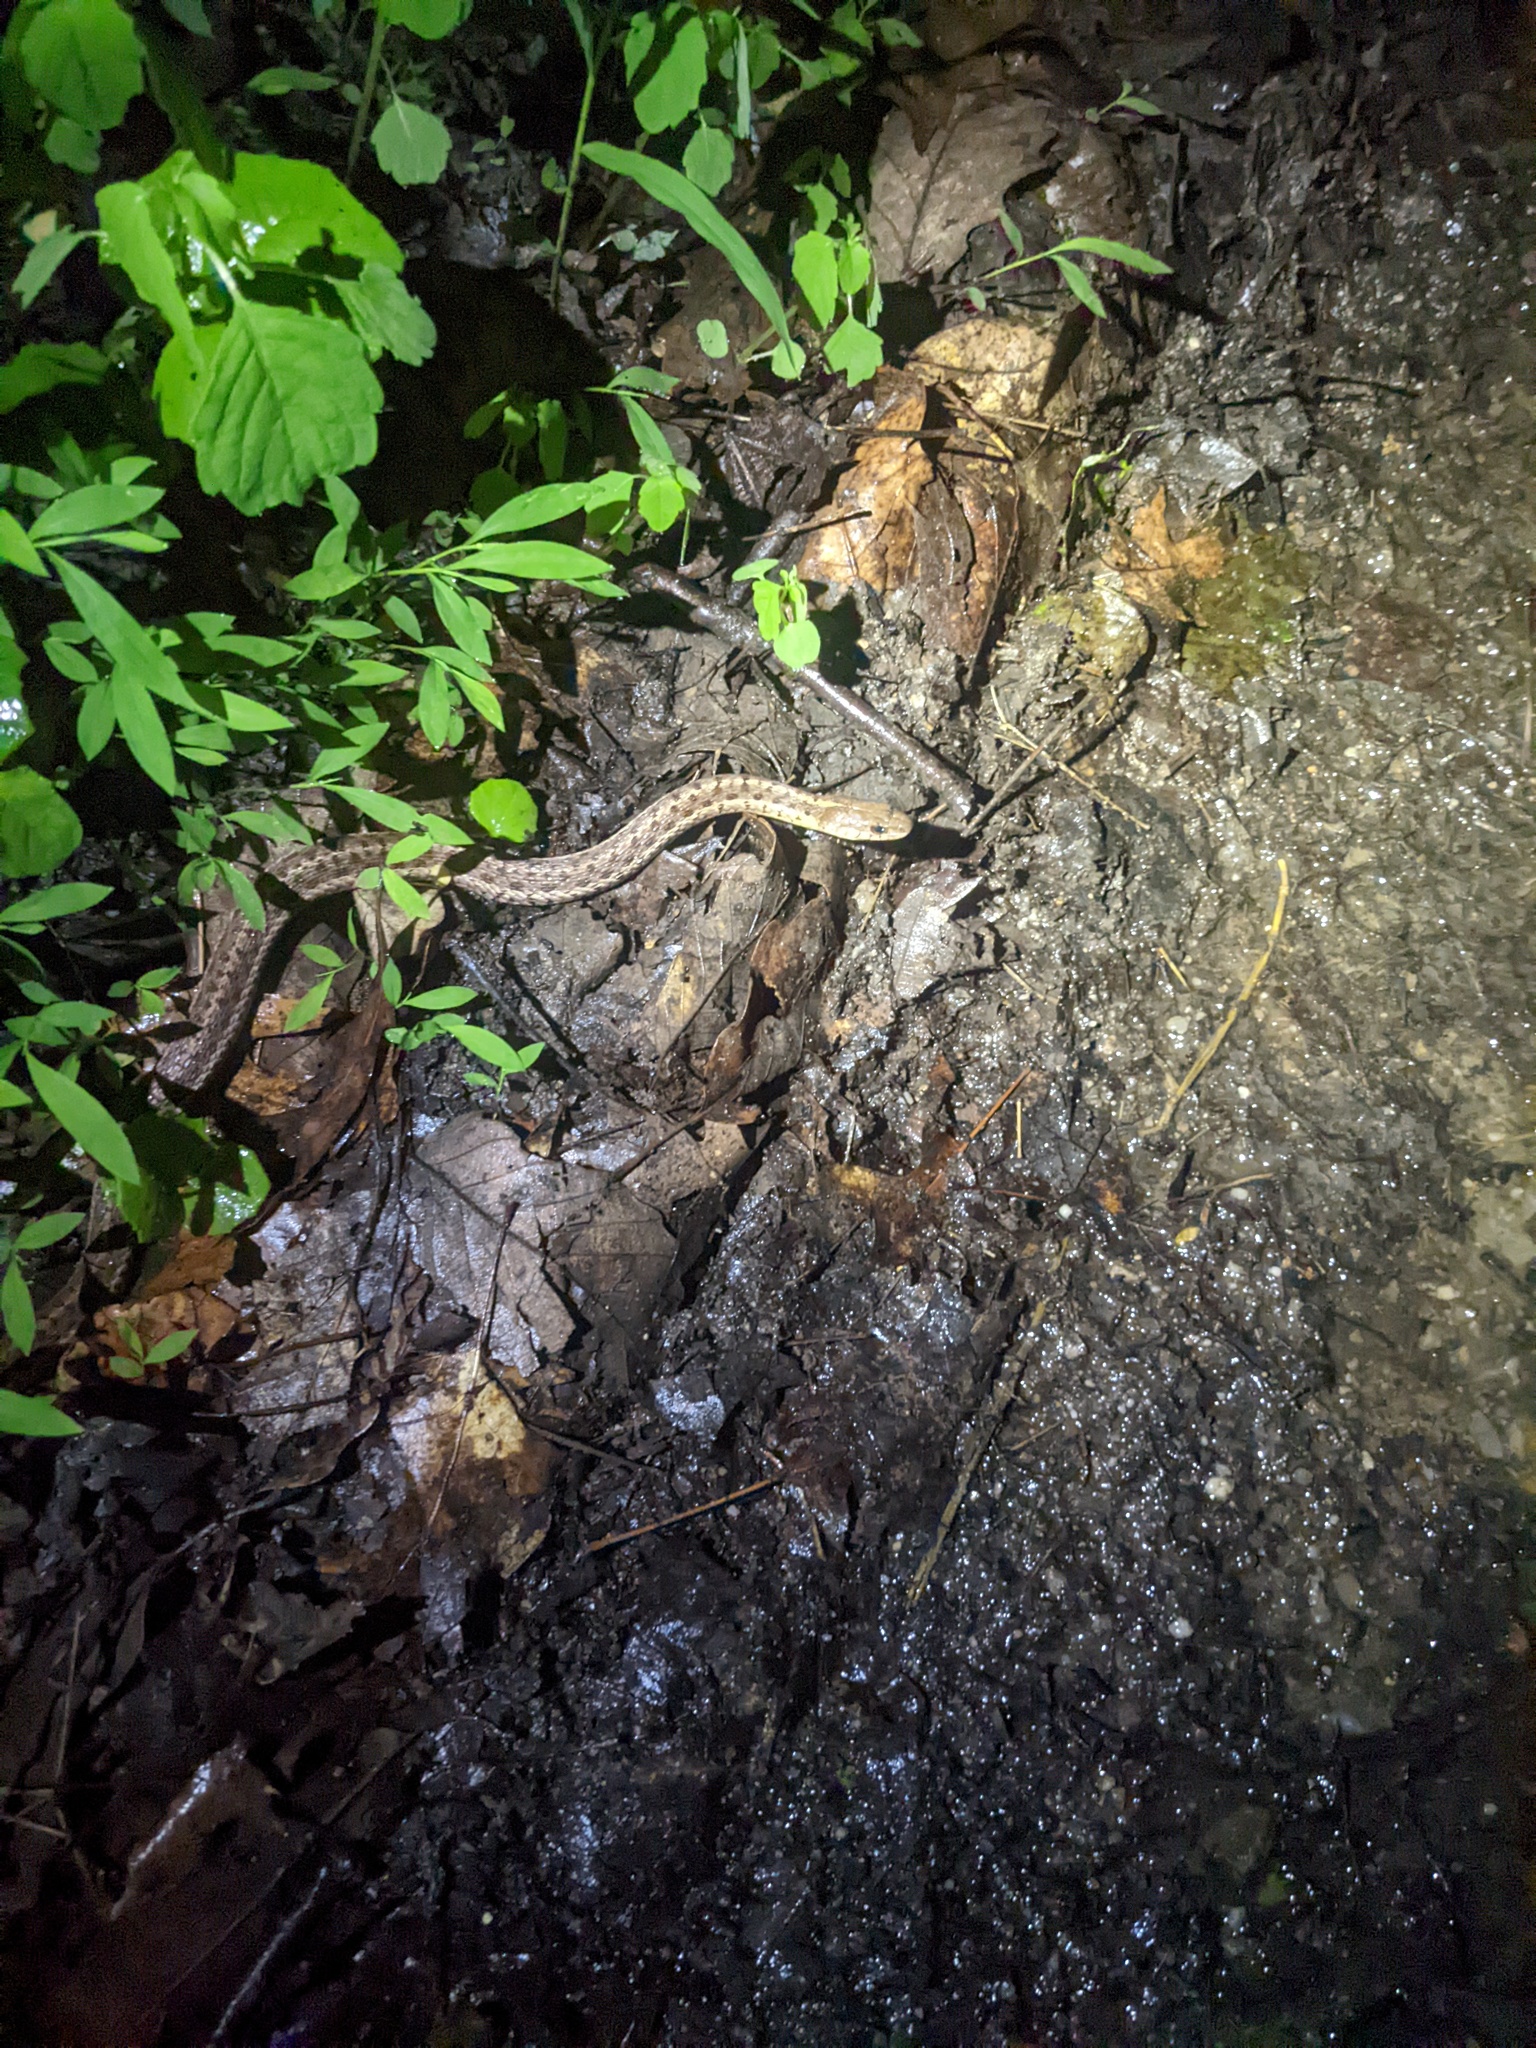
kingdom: Animalia
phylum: Chordata
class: Squamata
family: Colubridae
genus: Thamnophis
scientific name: Thamnophis sirtalis
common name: Common garter snake
